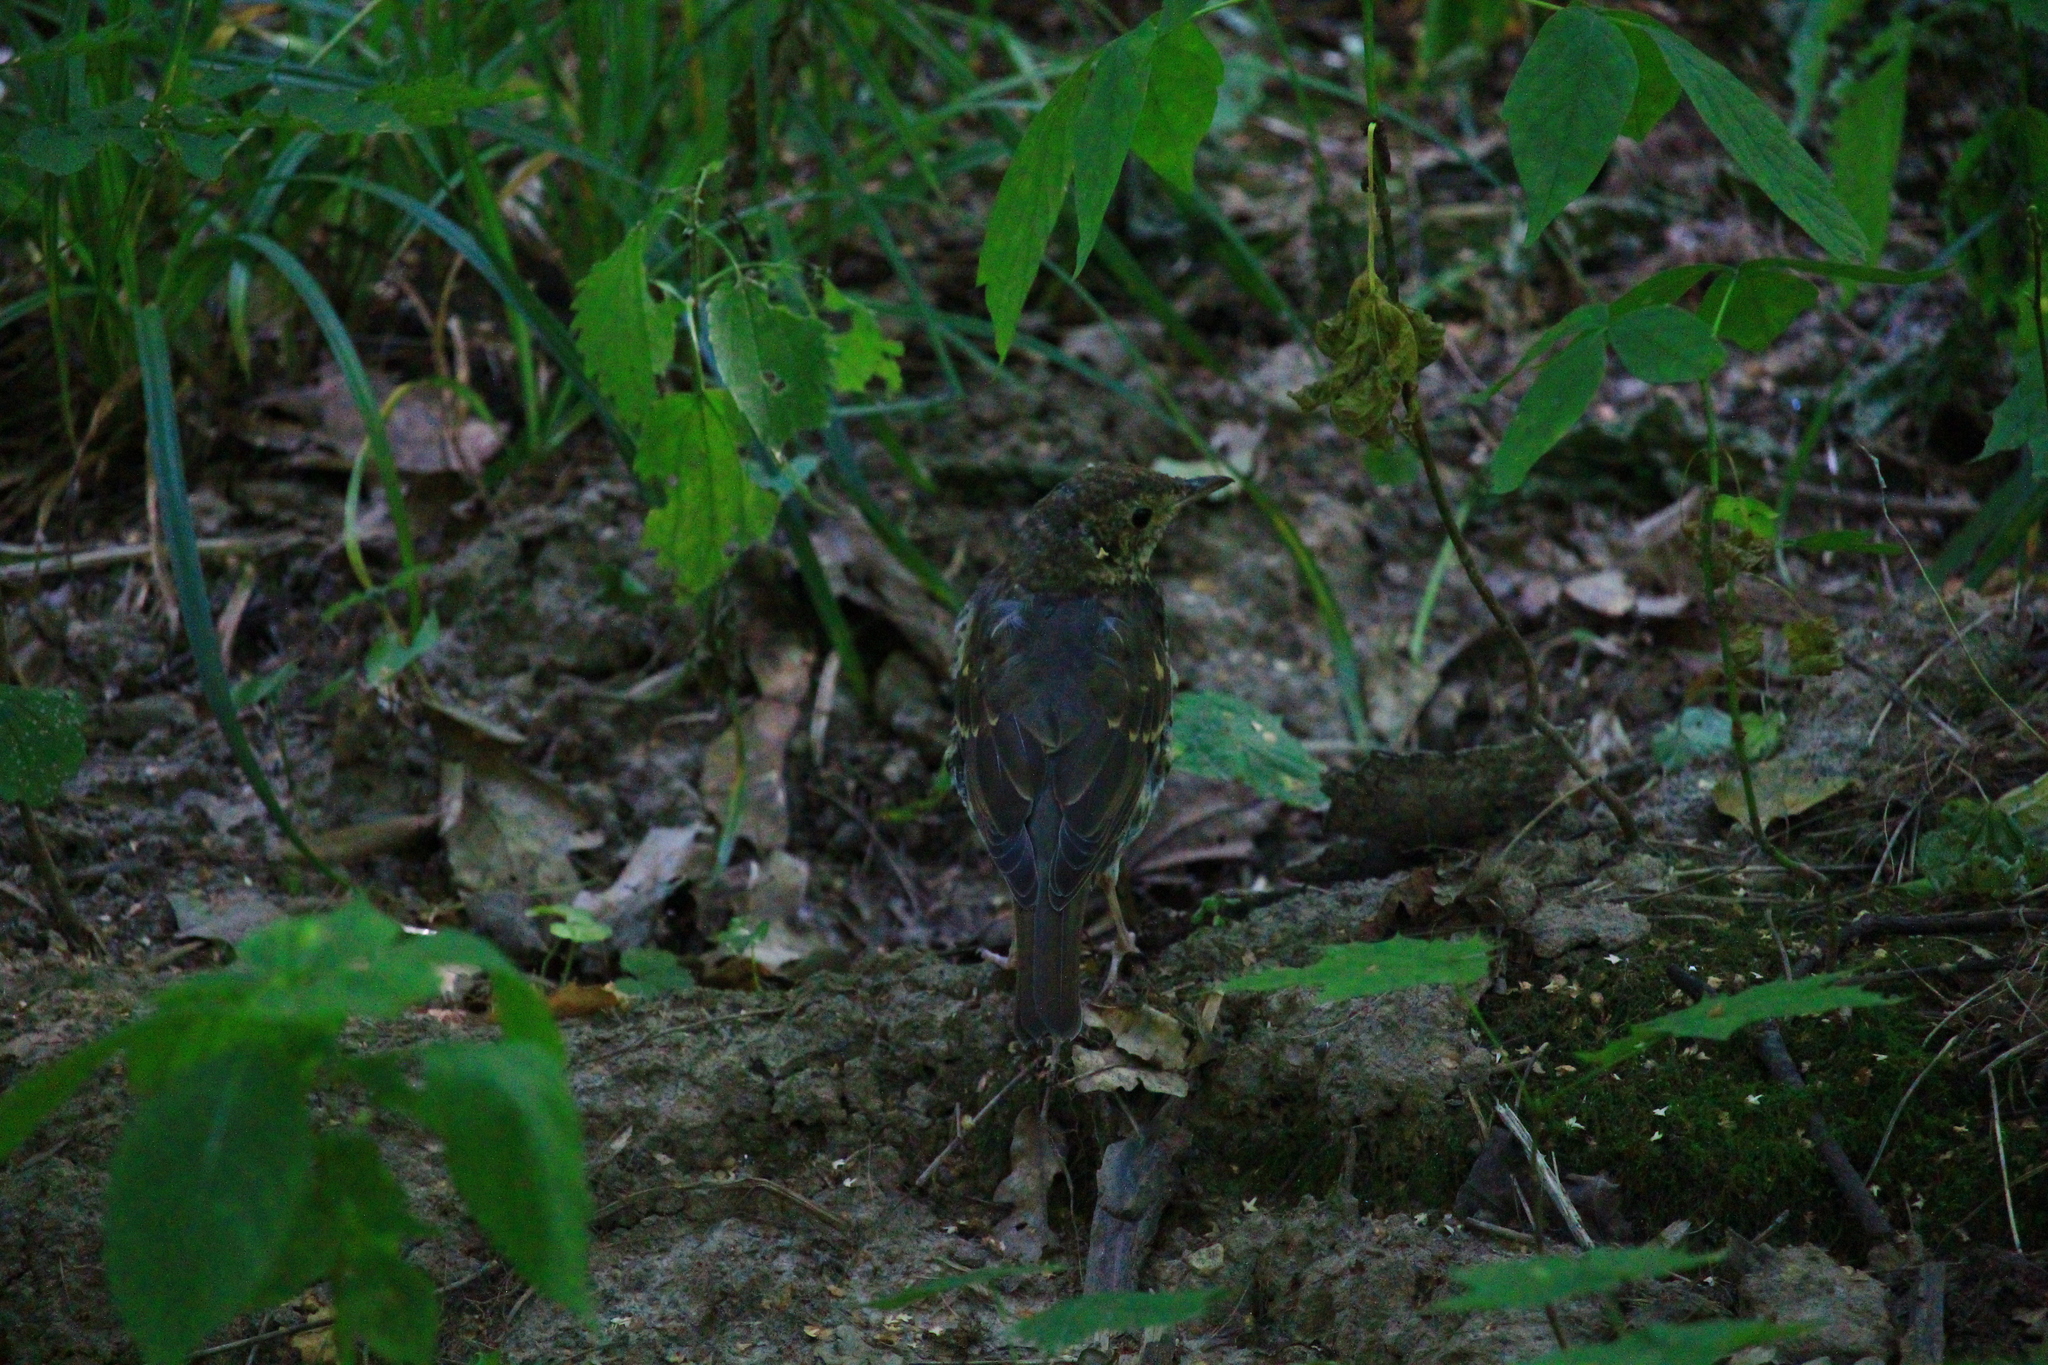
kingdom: Animalia
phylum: Chordata
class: Aves
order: Passeriformes
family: Turdidae
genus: Turdus
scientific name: Turdus philomelos
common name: Song thrush
